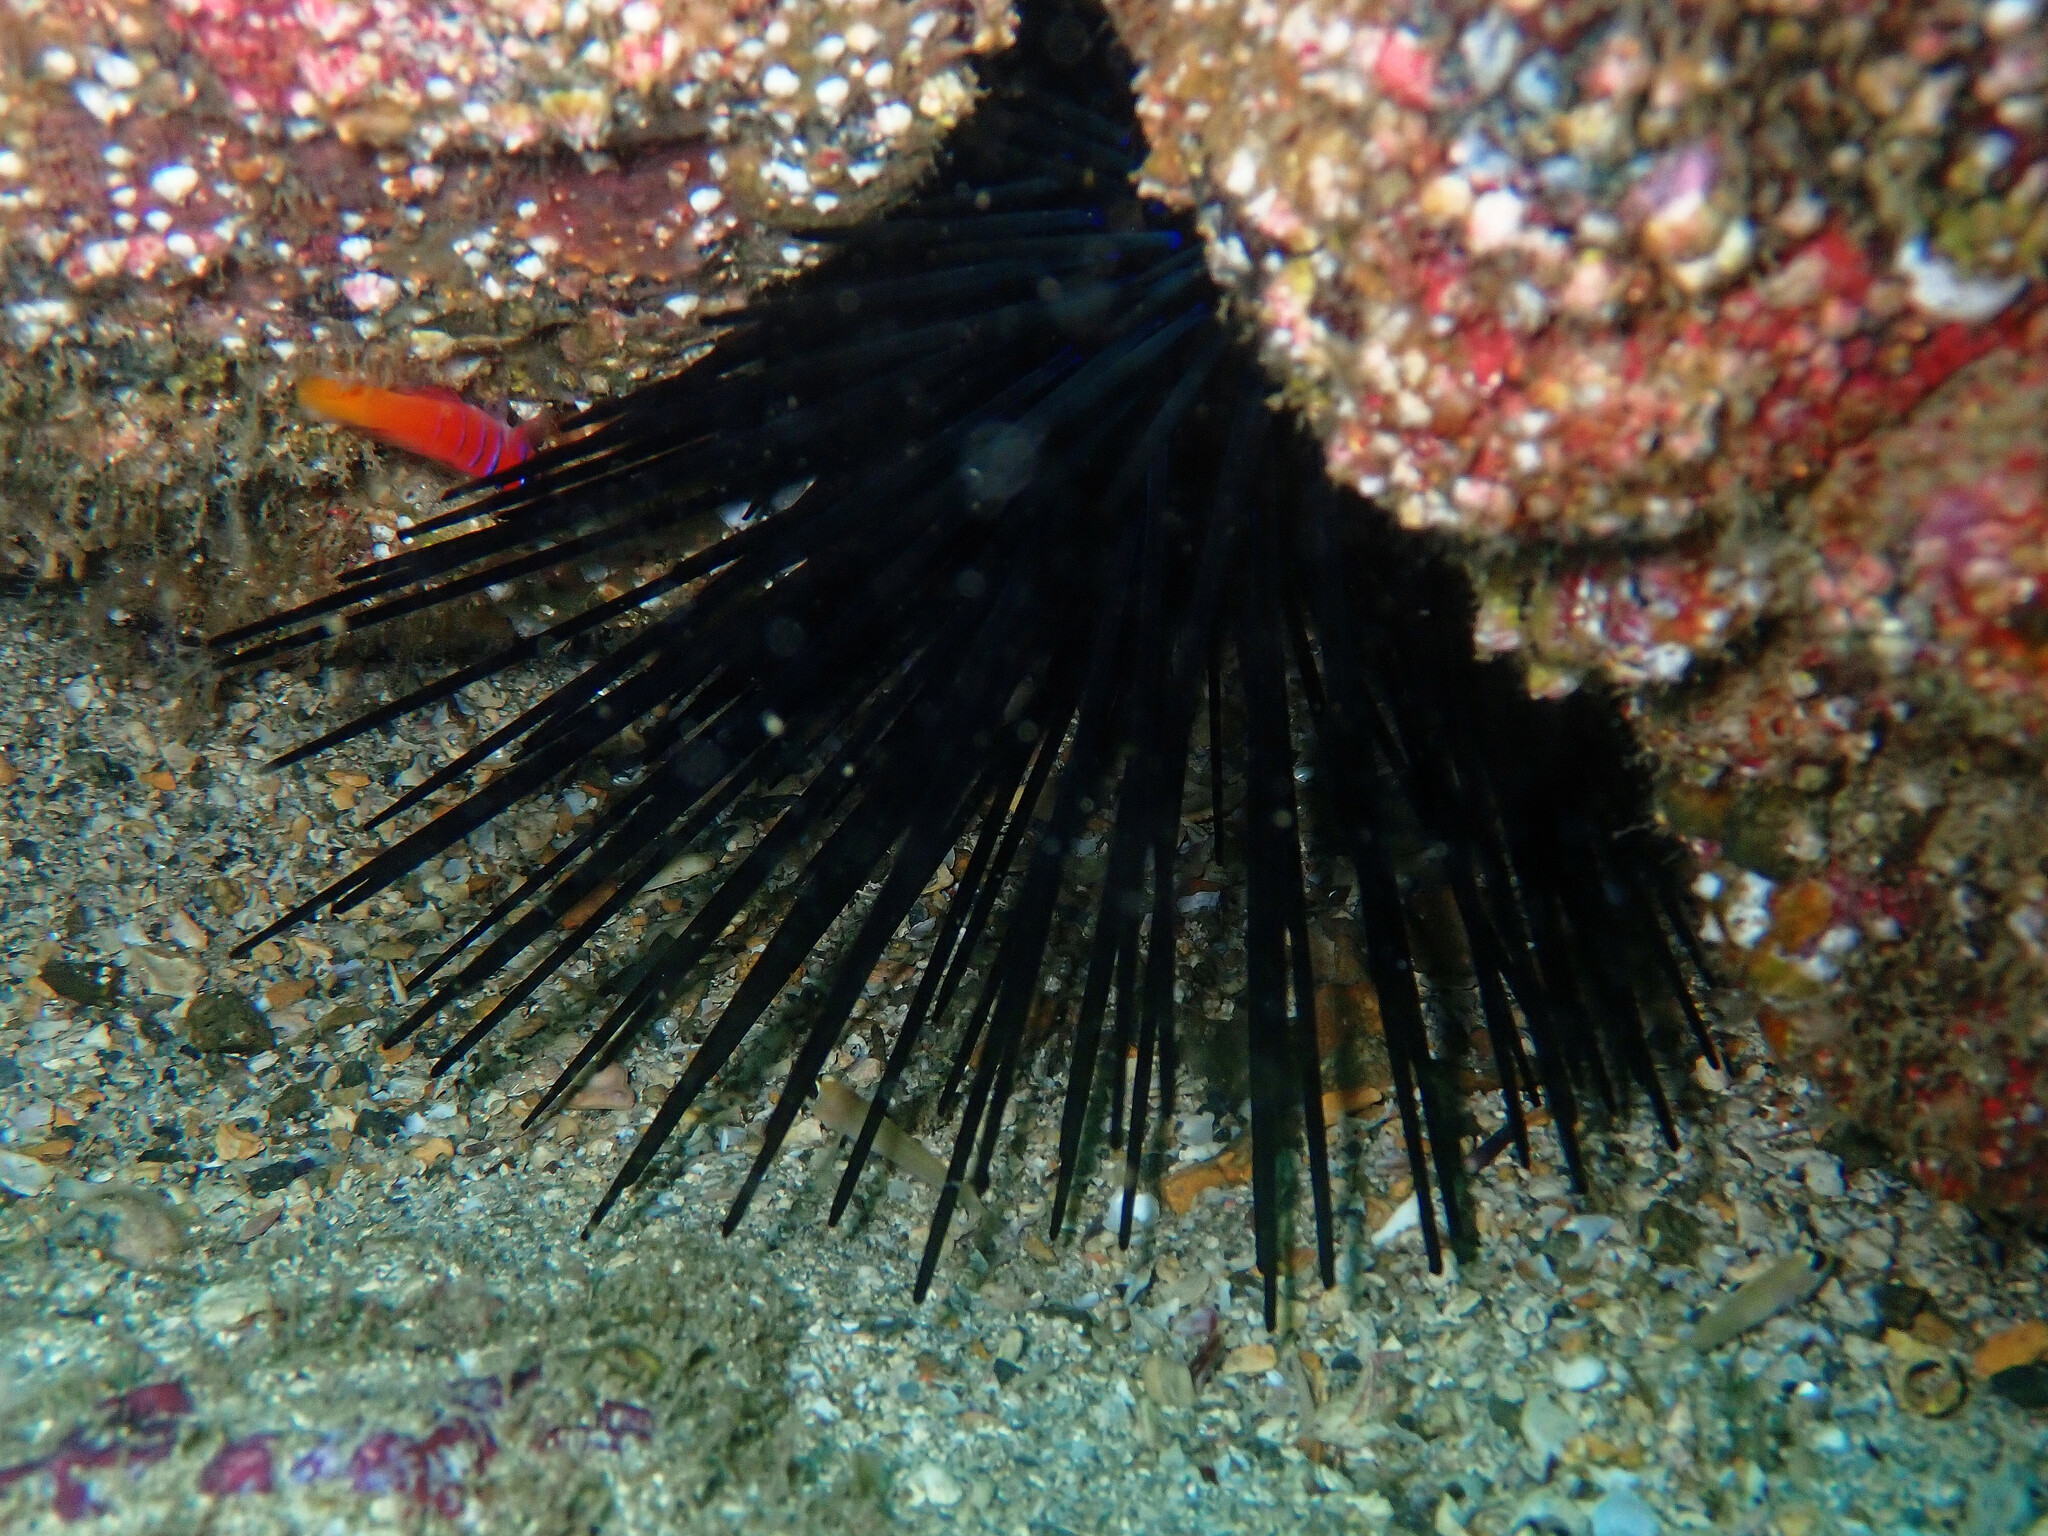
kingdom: Animalia
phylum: Echinodermata
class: Echinoidea
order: Diadematoida
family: Diadematidae
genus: Centrostephanus
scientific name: Centrostephanus coronatus
